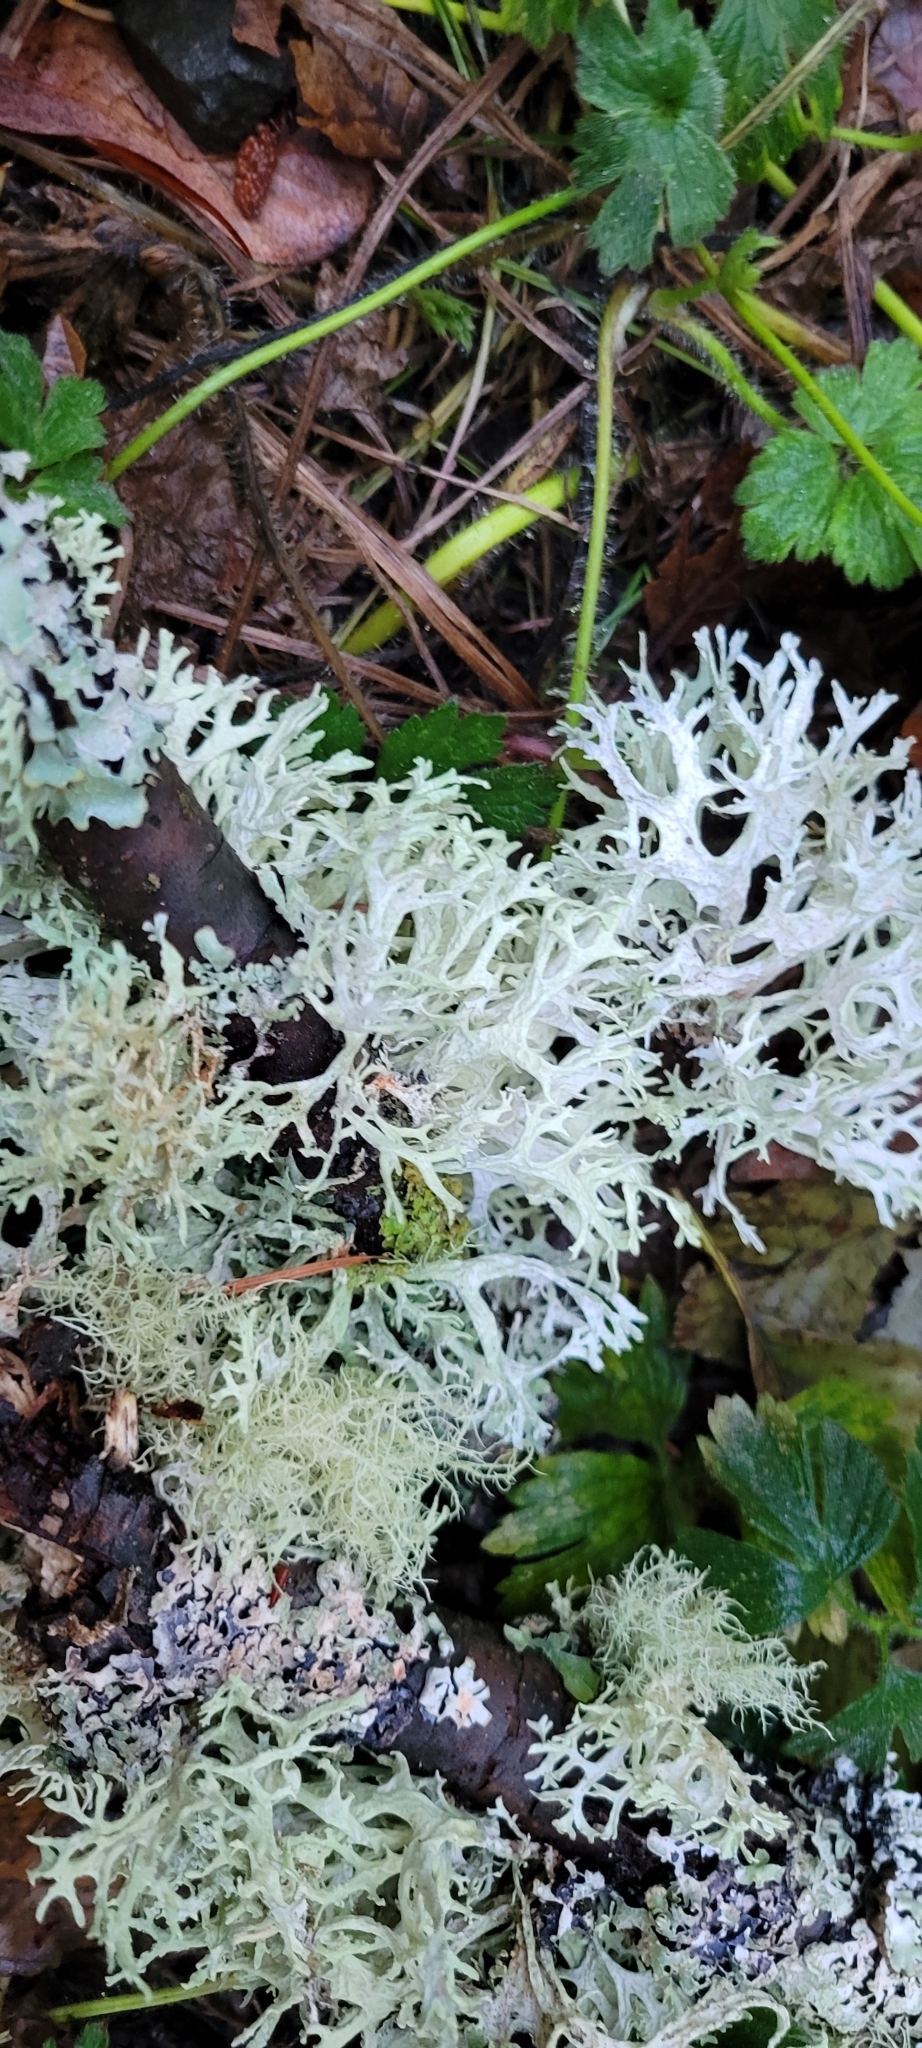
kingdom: Fungi
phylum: Ascomycota
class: Lecanoromycetes
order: Lecanorales
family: Parmeliaceae
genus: Evernia
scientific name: Evernia prunastri
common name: Oak moss
